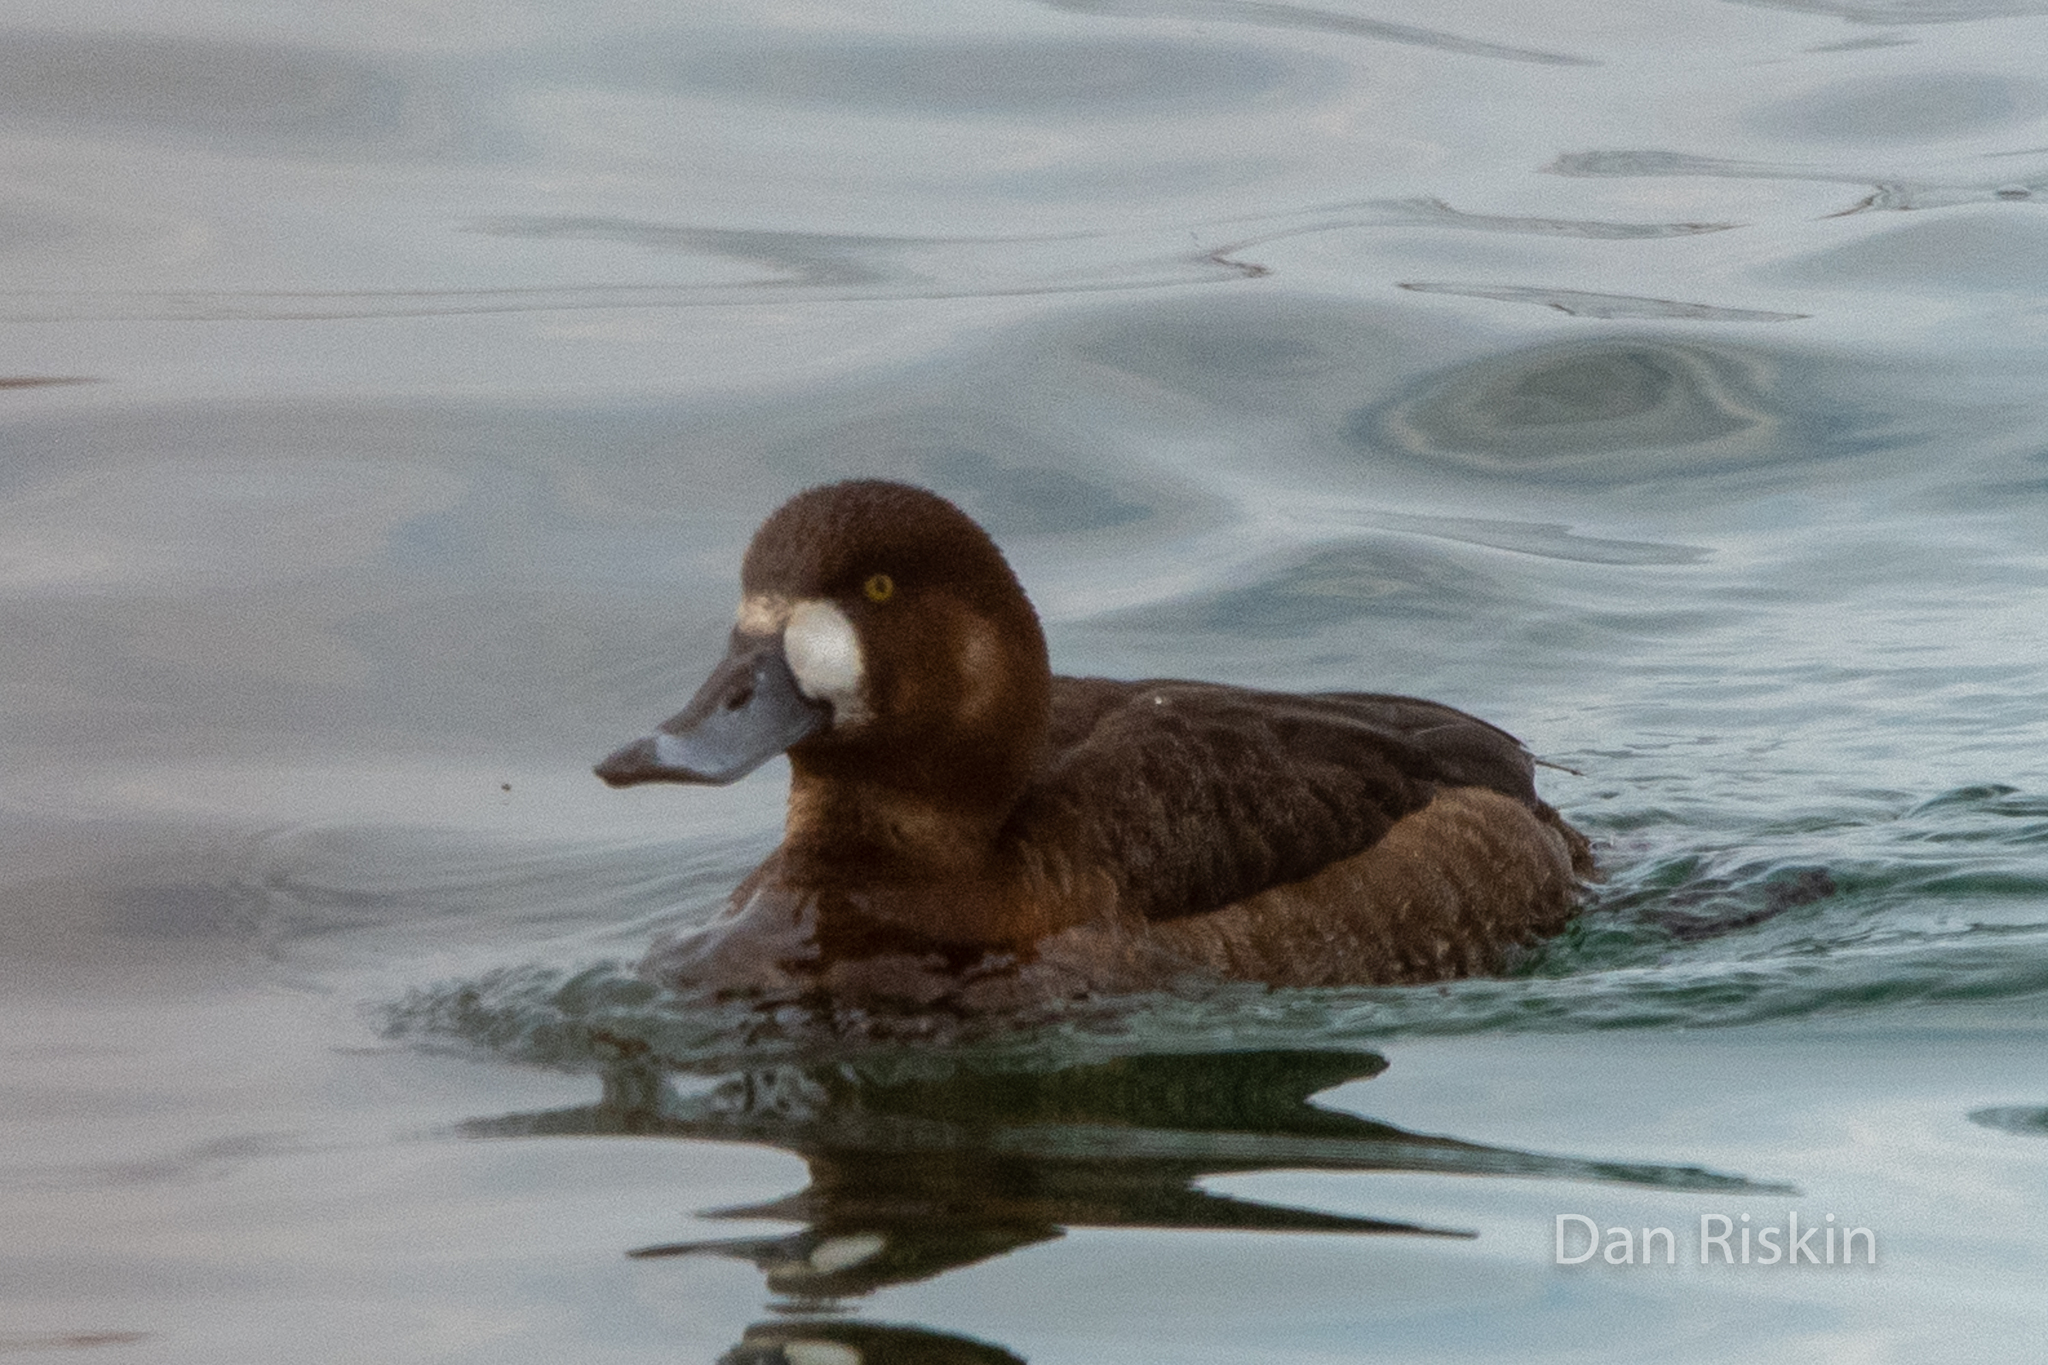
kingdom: Animalia
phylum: Chordata
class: Aves
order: Anseriformes
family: Anatidae
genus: Aythya
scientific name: Aythya marila
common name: Greater scaup
